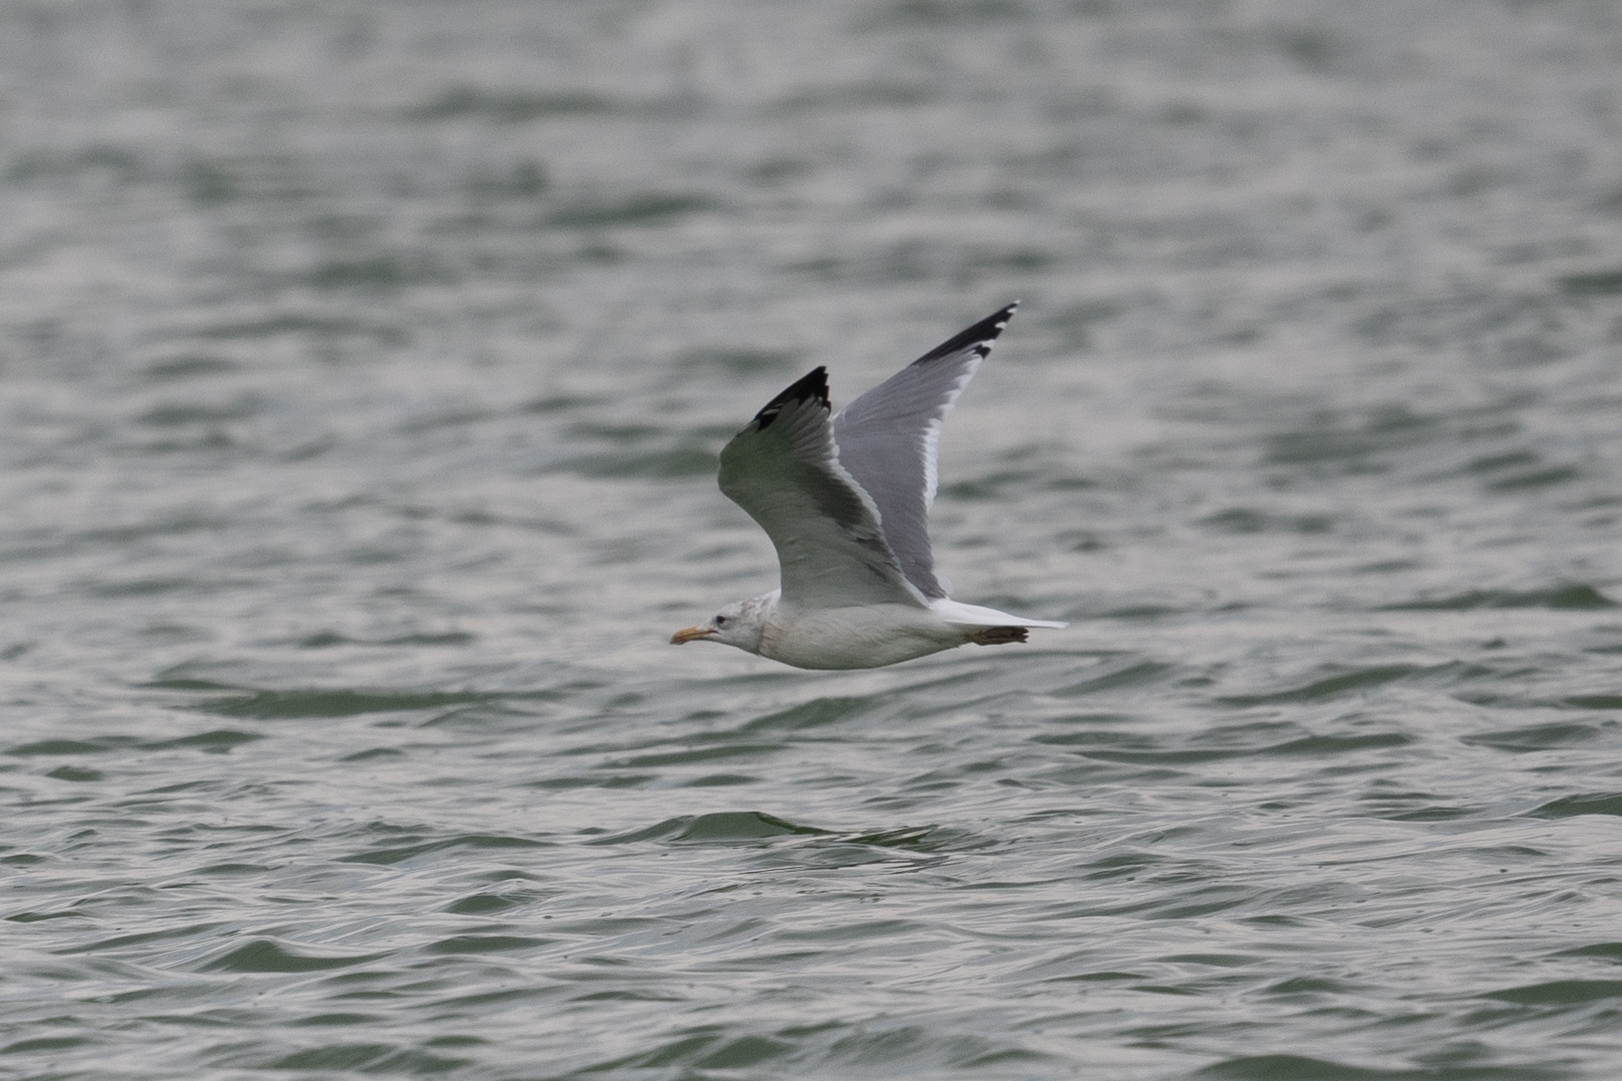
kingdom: Animalia
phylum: Chordata
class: Aves
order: Charadriiformes
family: Laridae
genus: Larus
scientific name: Larus californicus
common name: California gull
